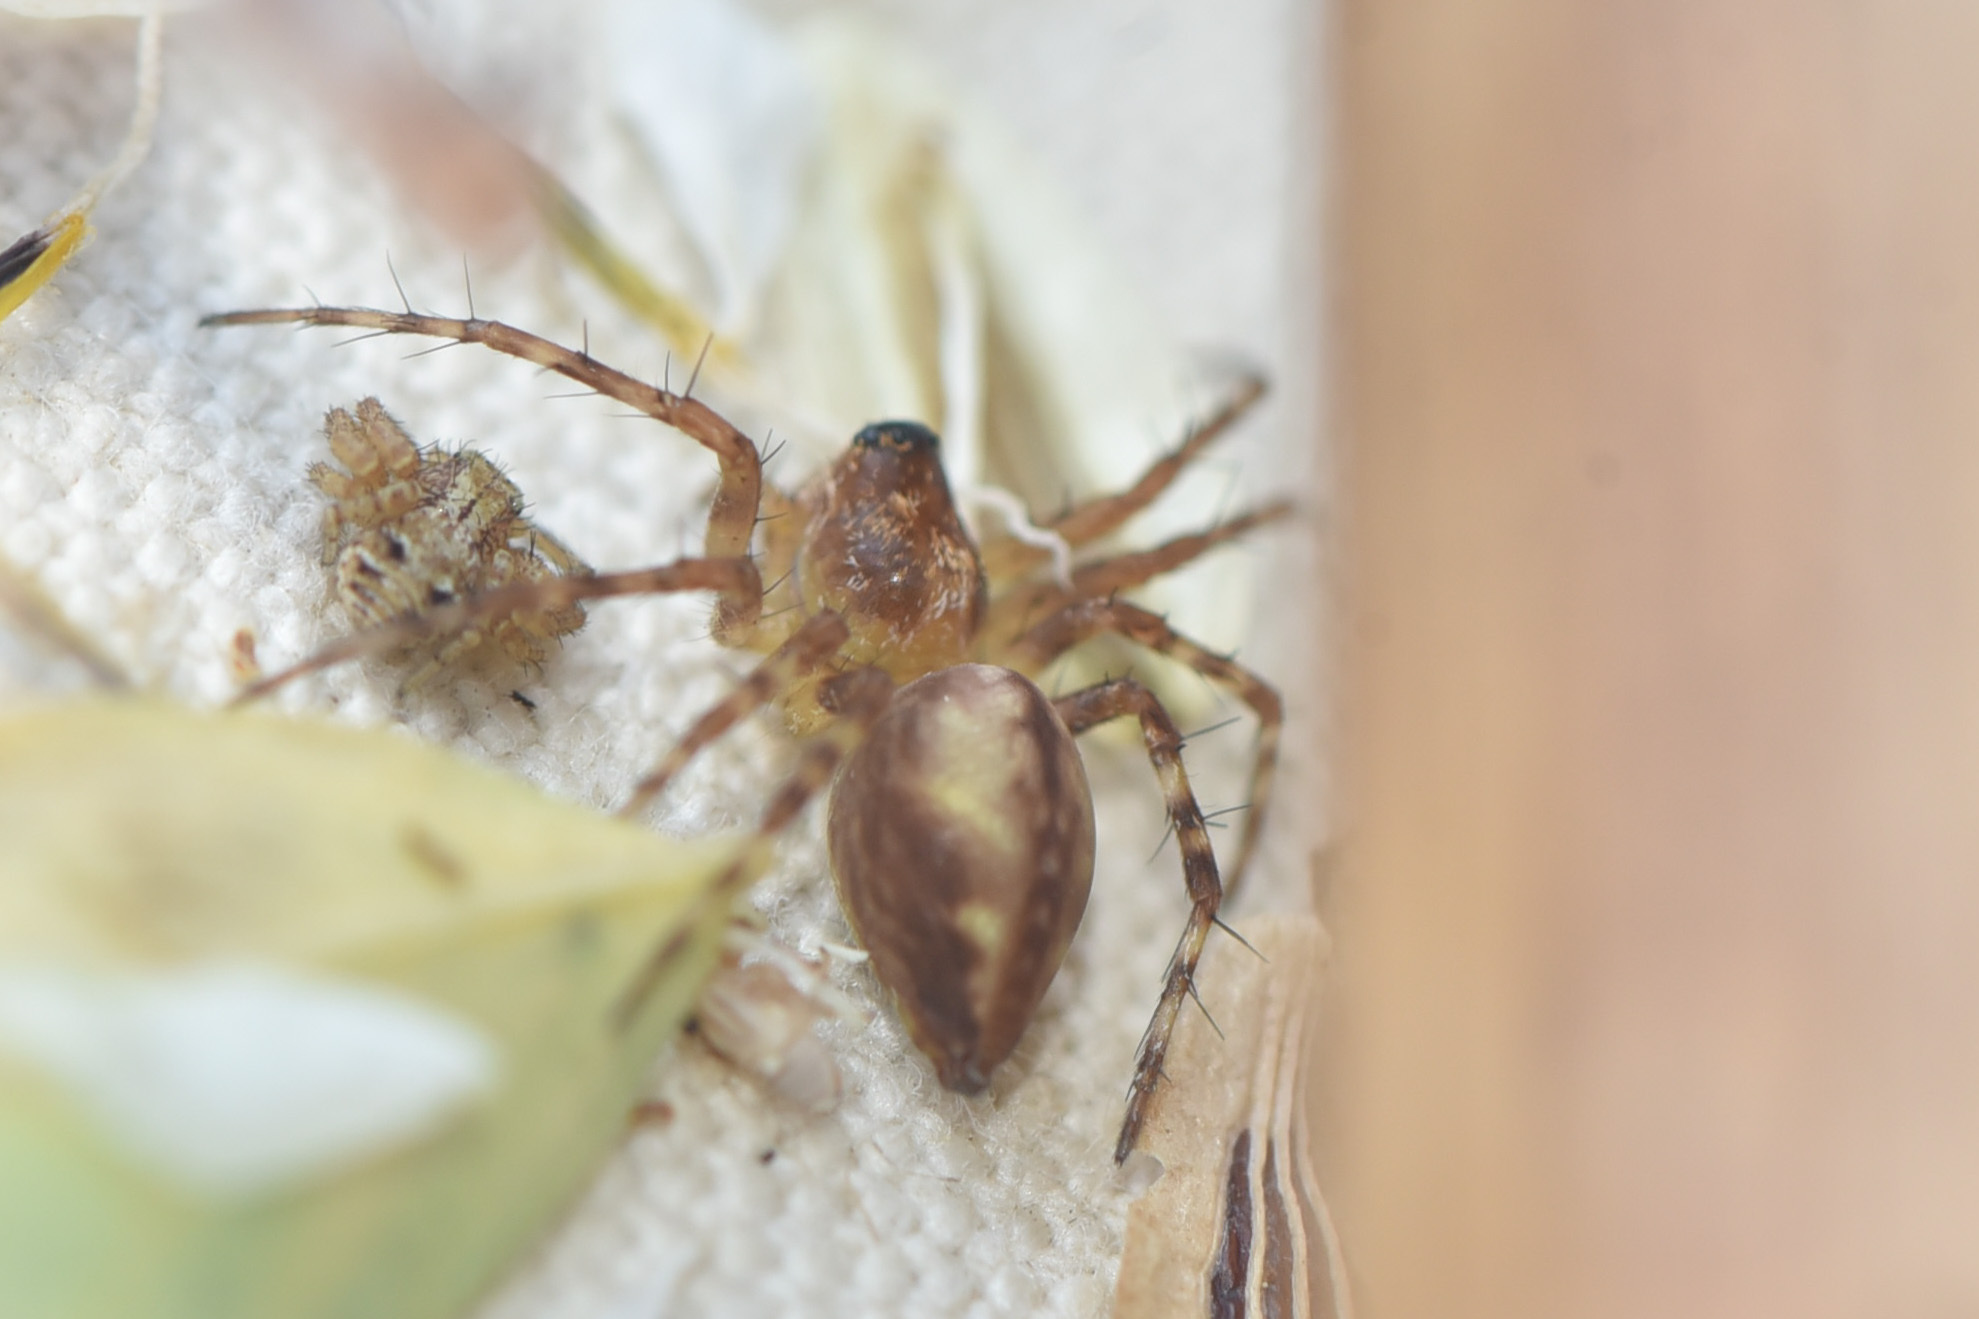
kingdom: Animalia
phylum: Arthropoda
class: Arachnida
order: Araneae
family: Oxyopidae
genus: Oxyopes
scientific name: Oxyopes scalaris
